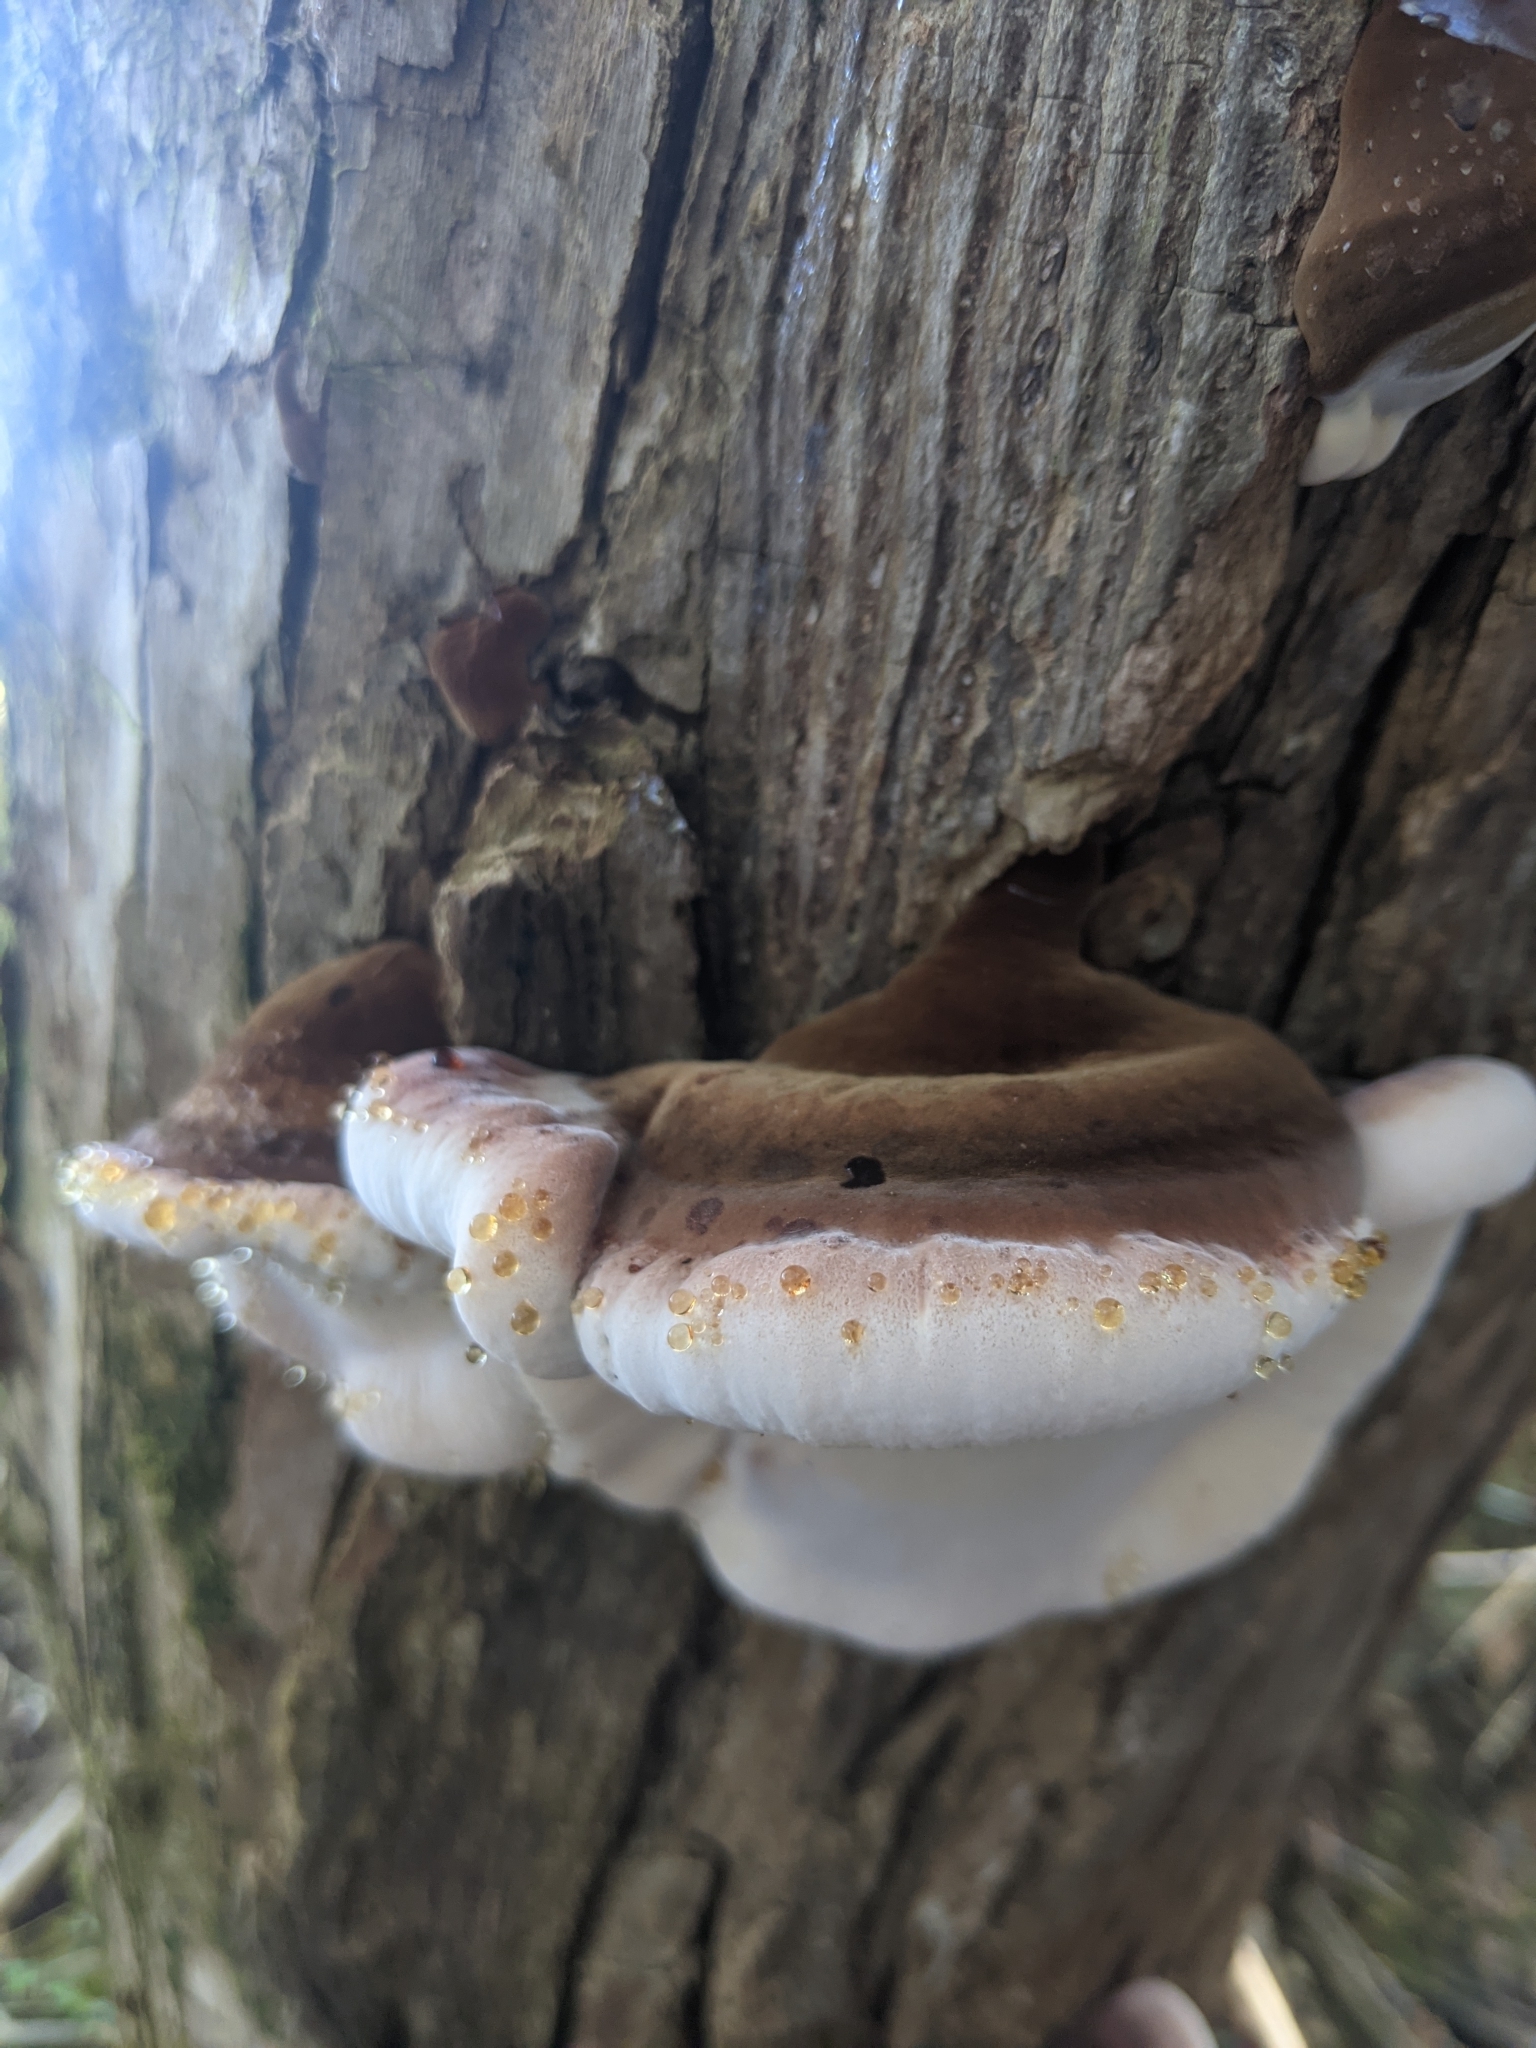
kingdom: Fungi
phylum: Basidiomycota
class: Agaricomycetes
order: Polyporales
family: Ischnodermataceae
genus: Ischnoderma
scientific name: Ischnoderma resinosum
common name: Resinous polypore
